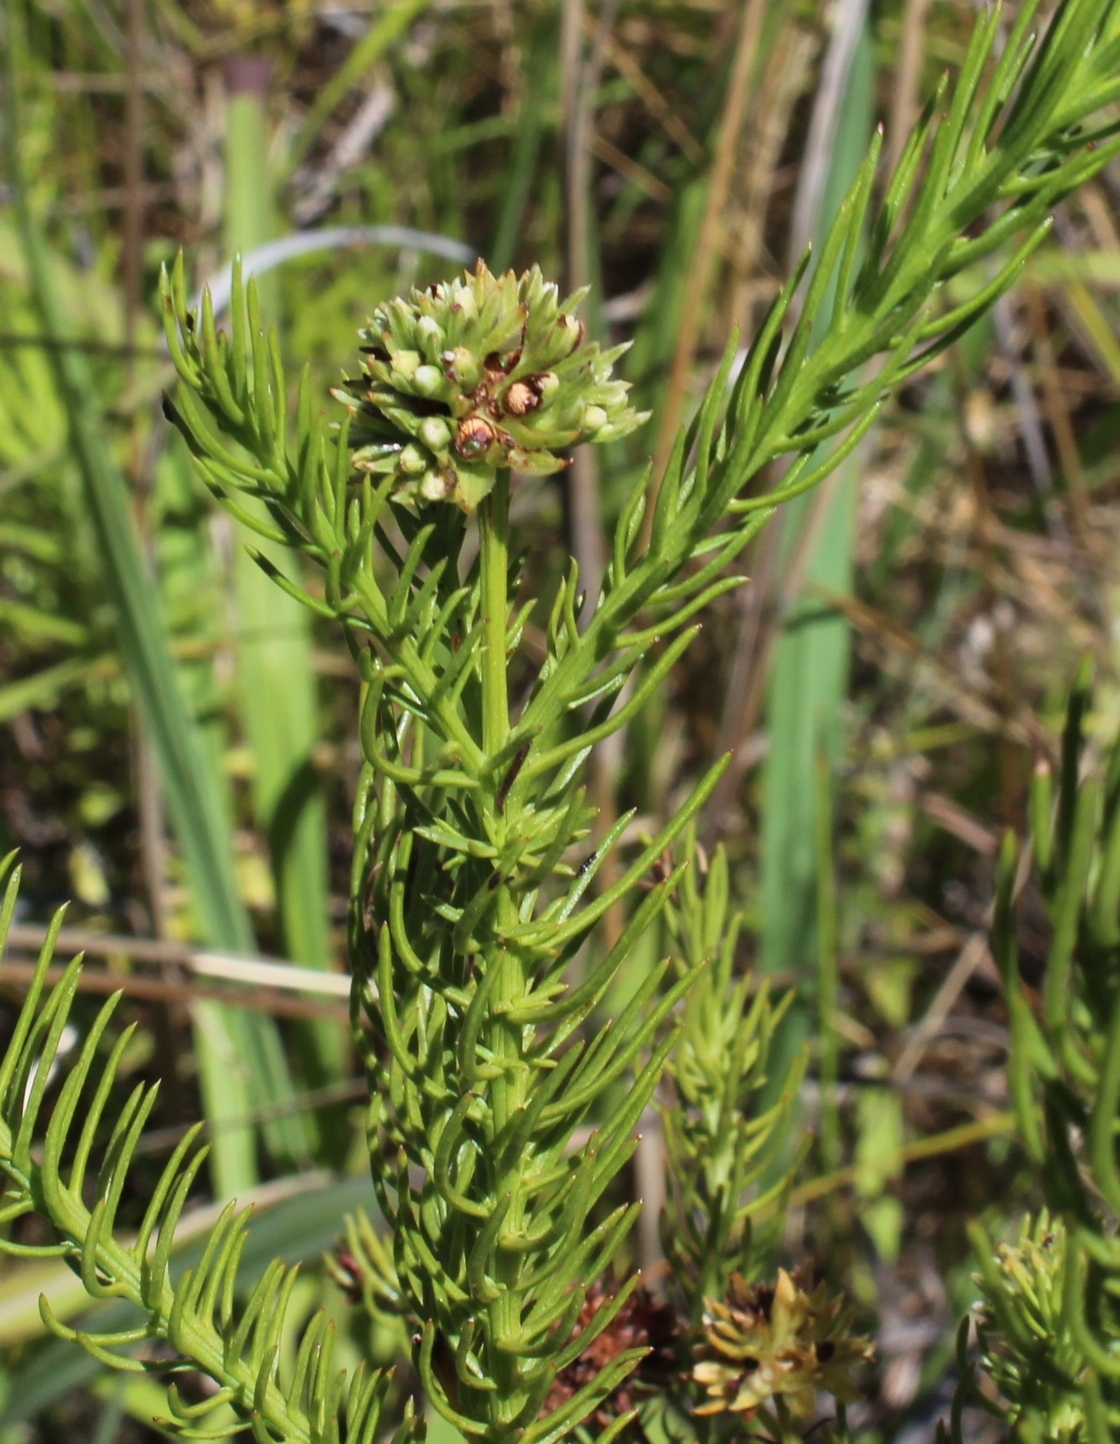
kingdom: Plantae
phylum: Tracheophyta
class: Magnoliopsida
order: Santalales
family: Thesiaceae
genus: Thesium
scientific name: Thesium pinifolium
